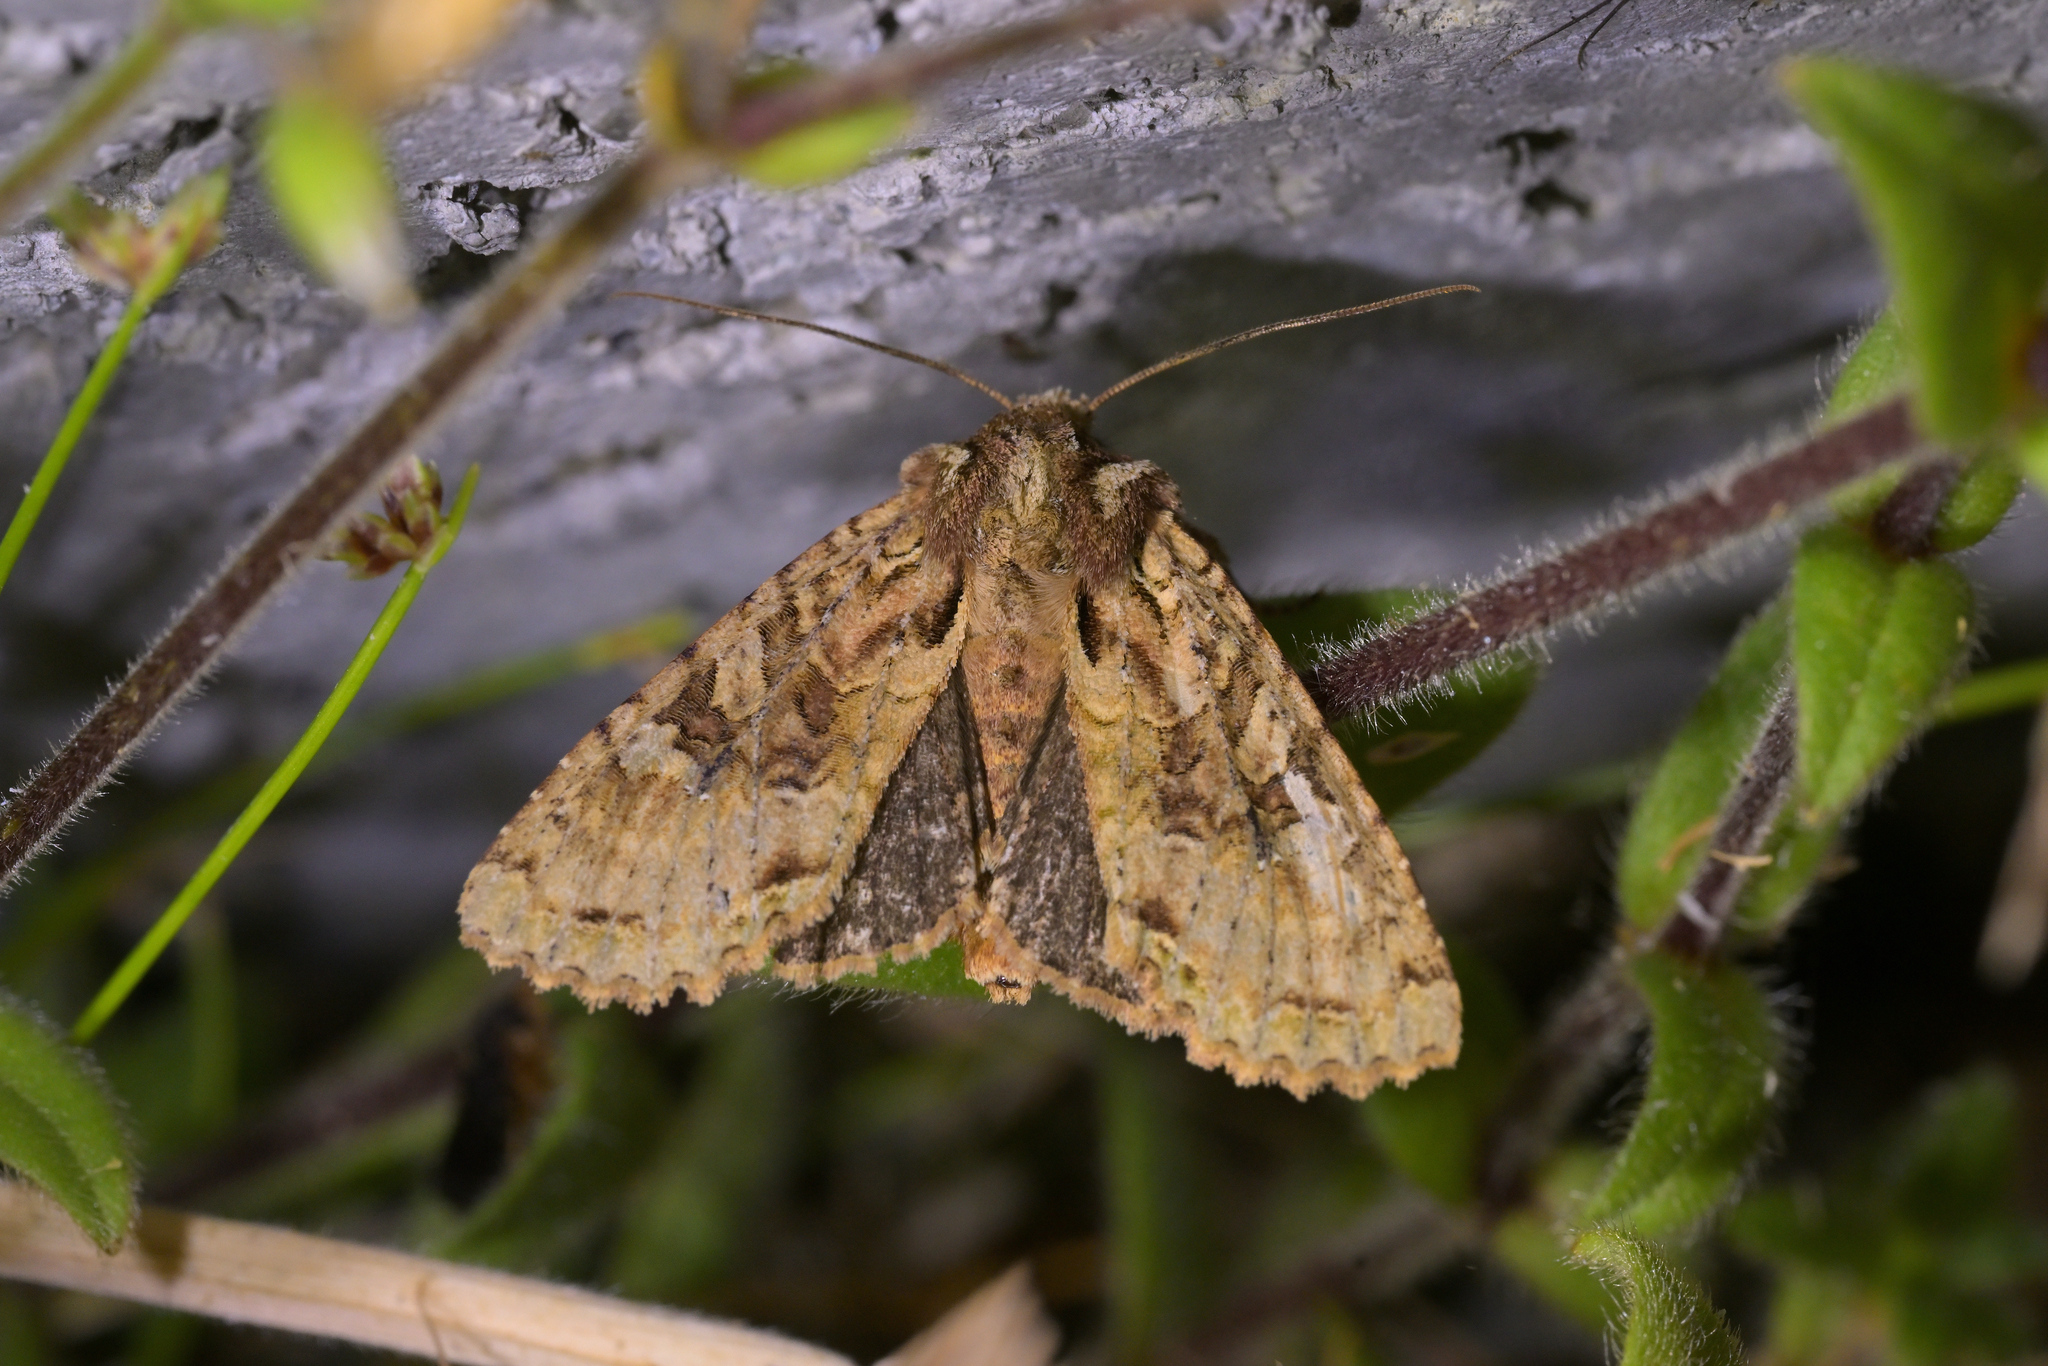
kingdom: Animalia
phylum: Arthropoda
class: Insecta
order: Lepidoptera
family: Noctuidae
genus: Meterana
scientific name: Meterana
